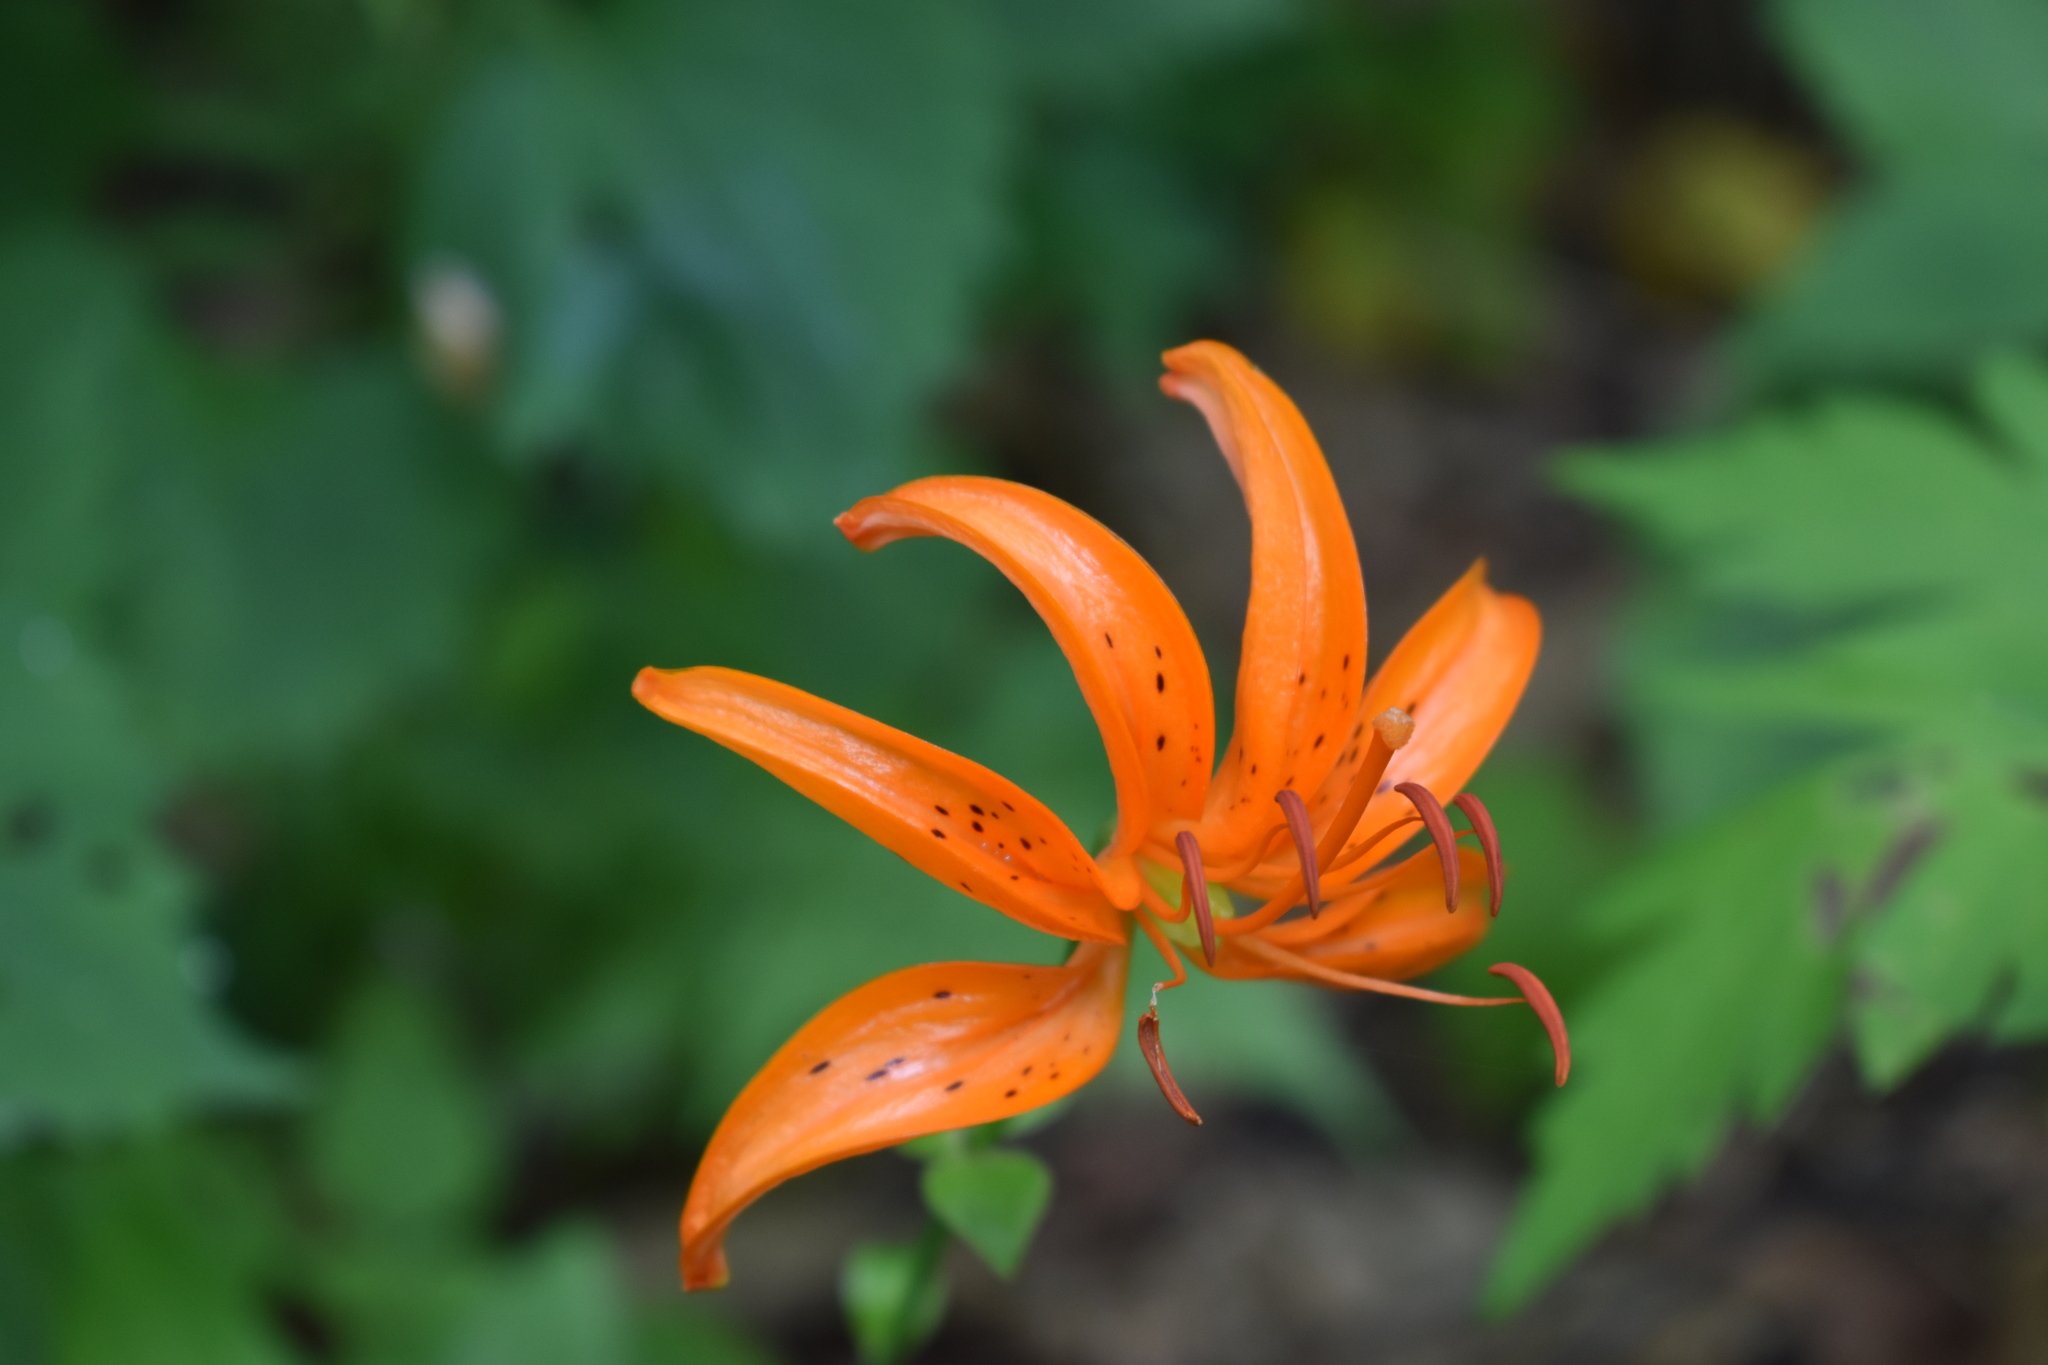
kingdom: Plantae
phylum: Tracheophyta
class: Liliopsida
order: Liliales
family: Liliaceae
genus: Lilium
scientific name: Lilium distichum
